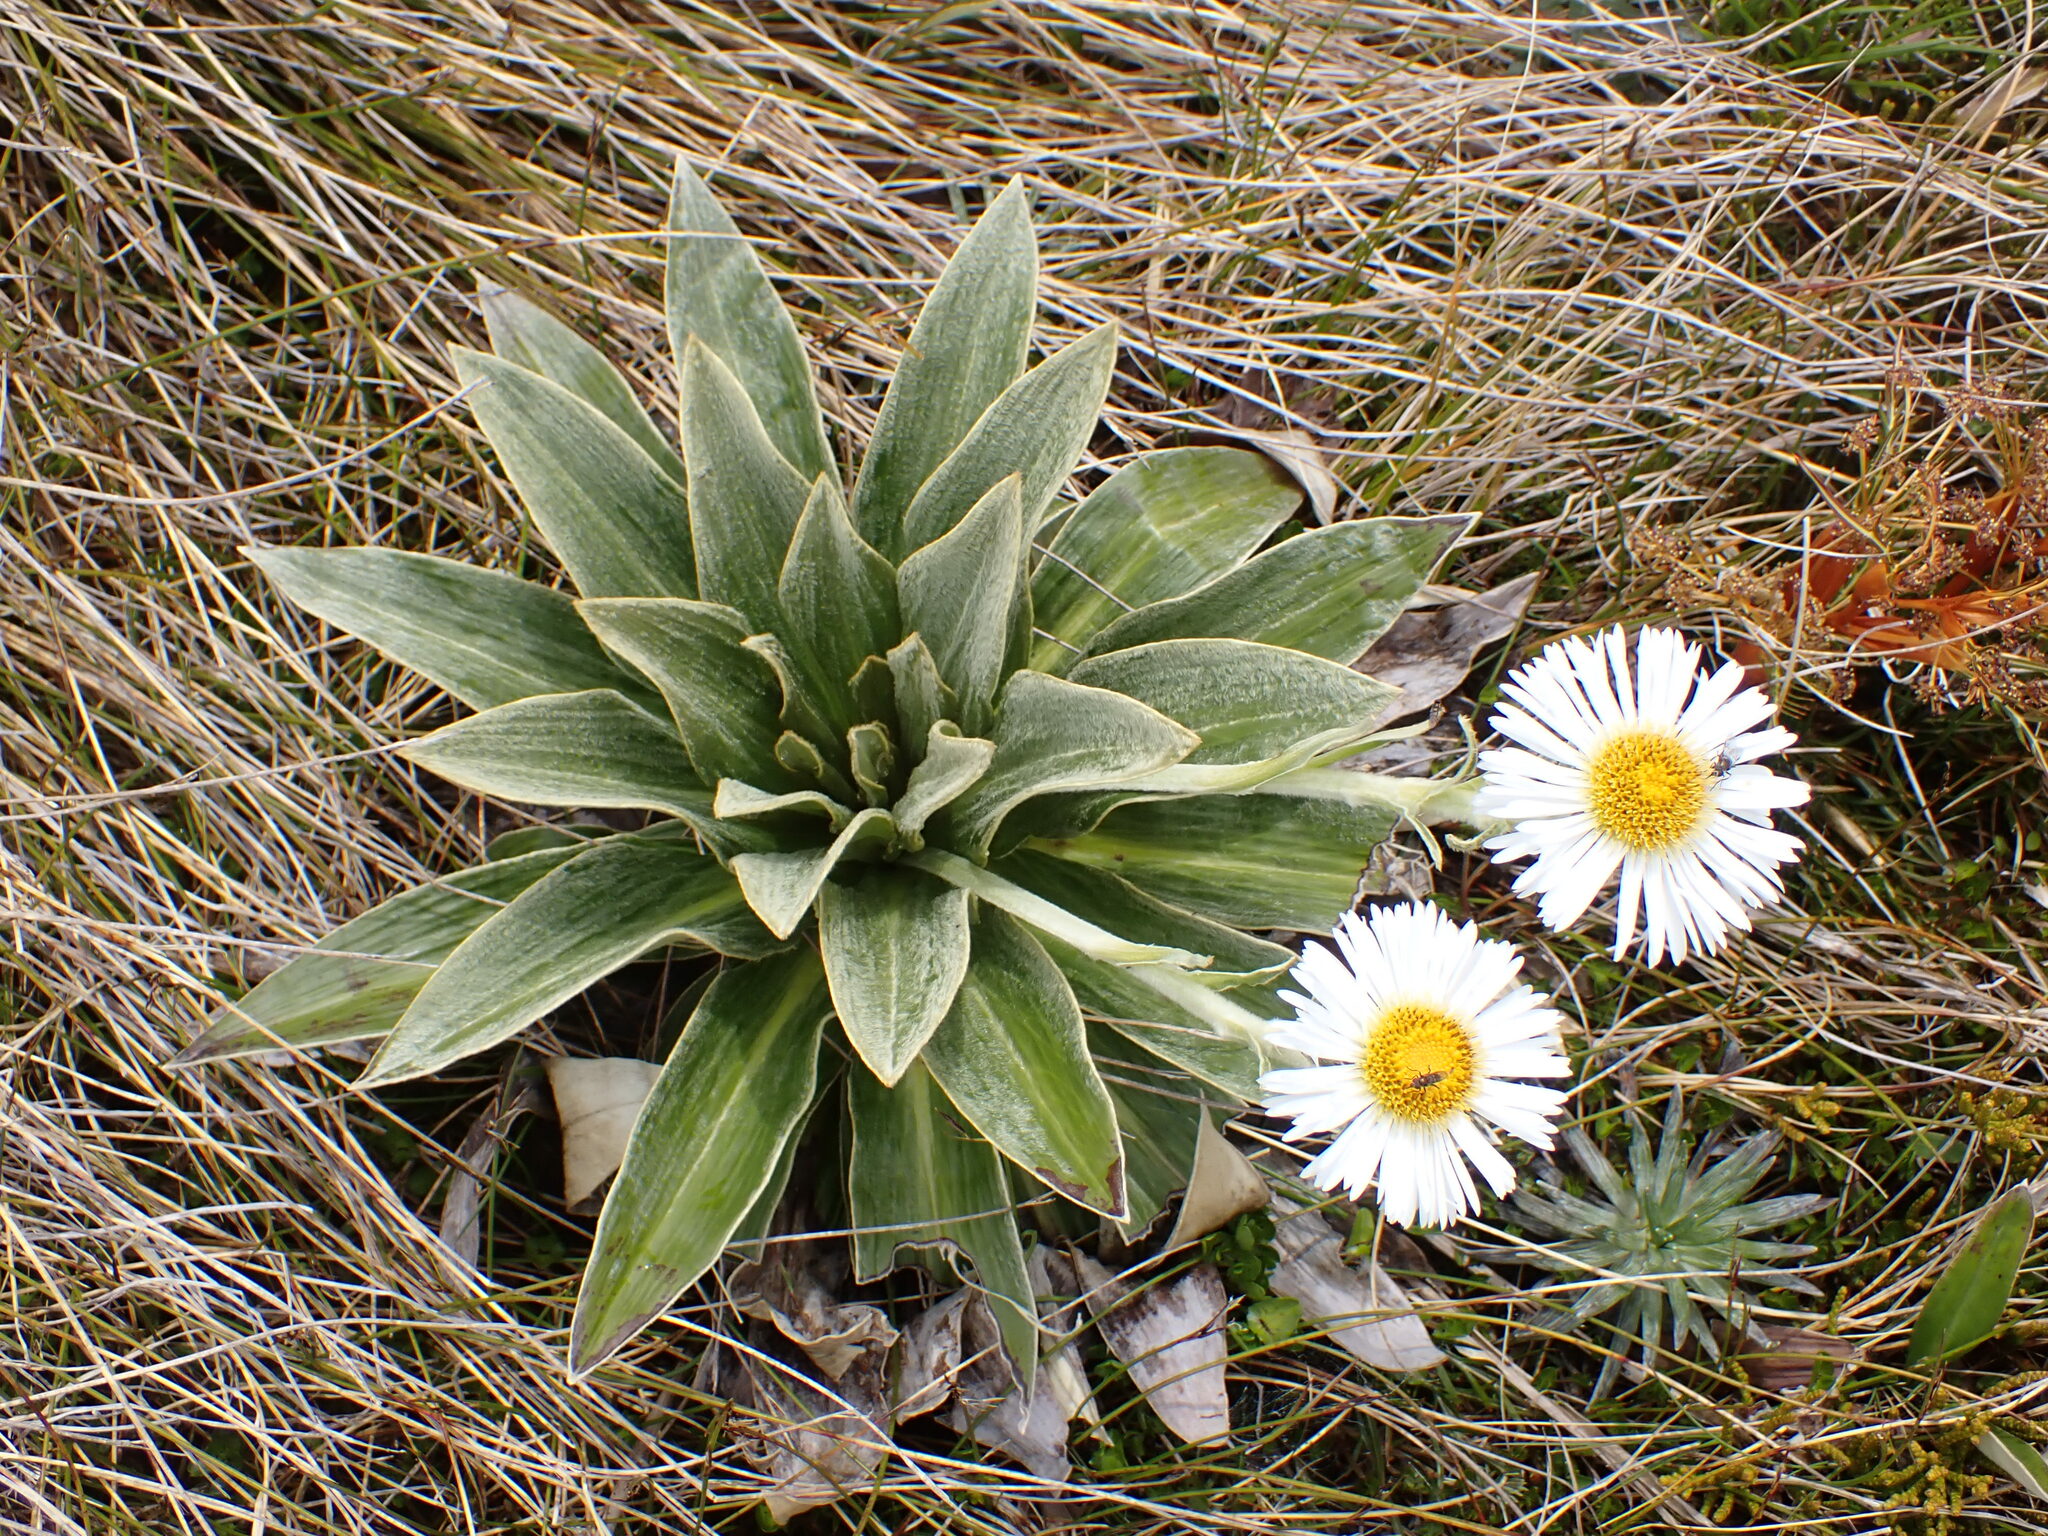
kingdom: Plantae
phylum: Tracheophyta
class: Magnoliopsida
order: Asterales
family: Asteraceae
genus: Celmisia
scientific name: Celmisia verbascifolia
